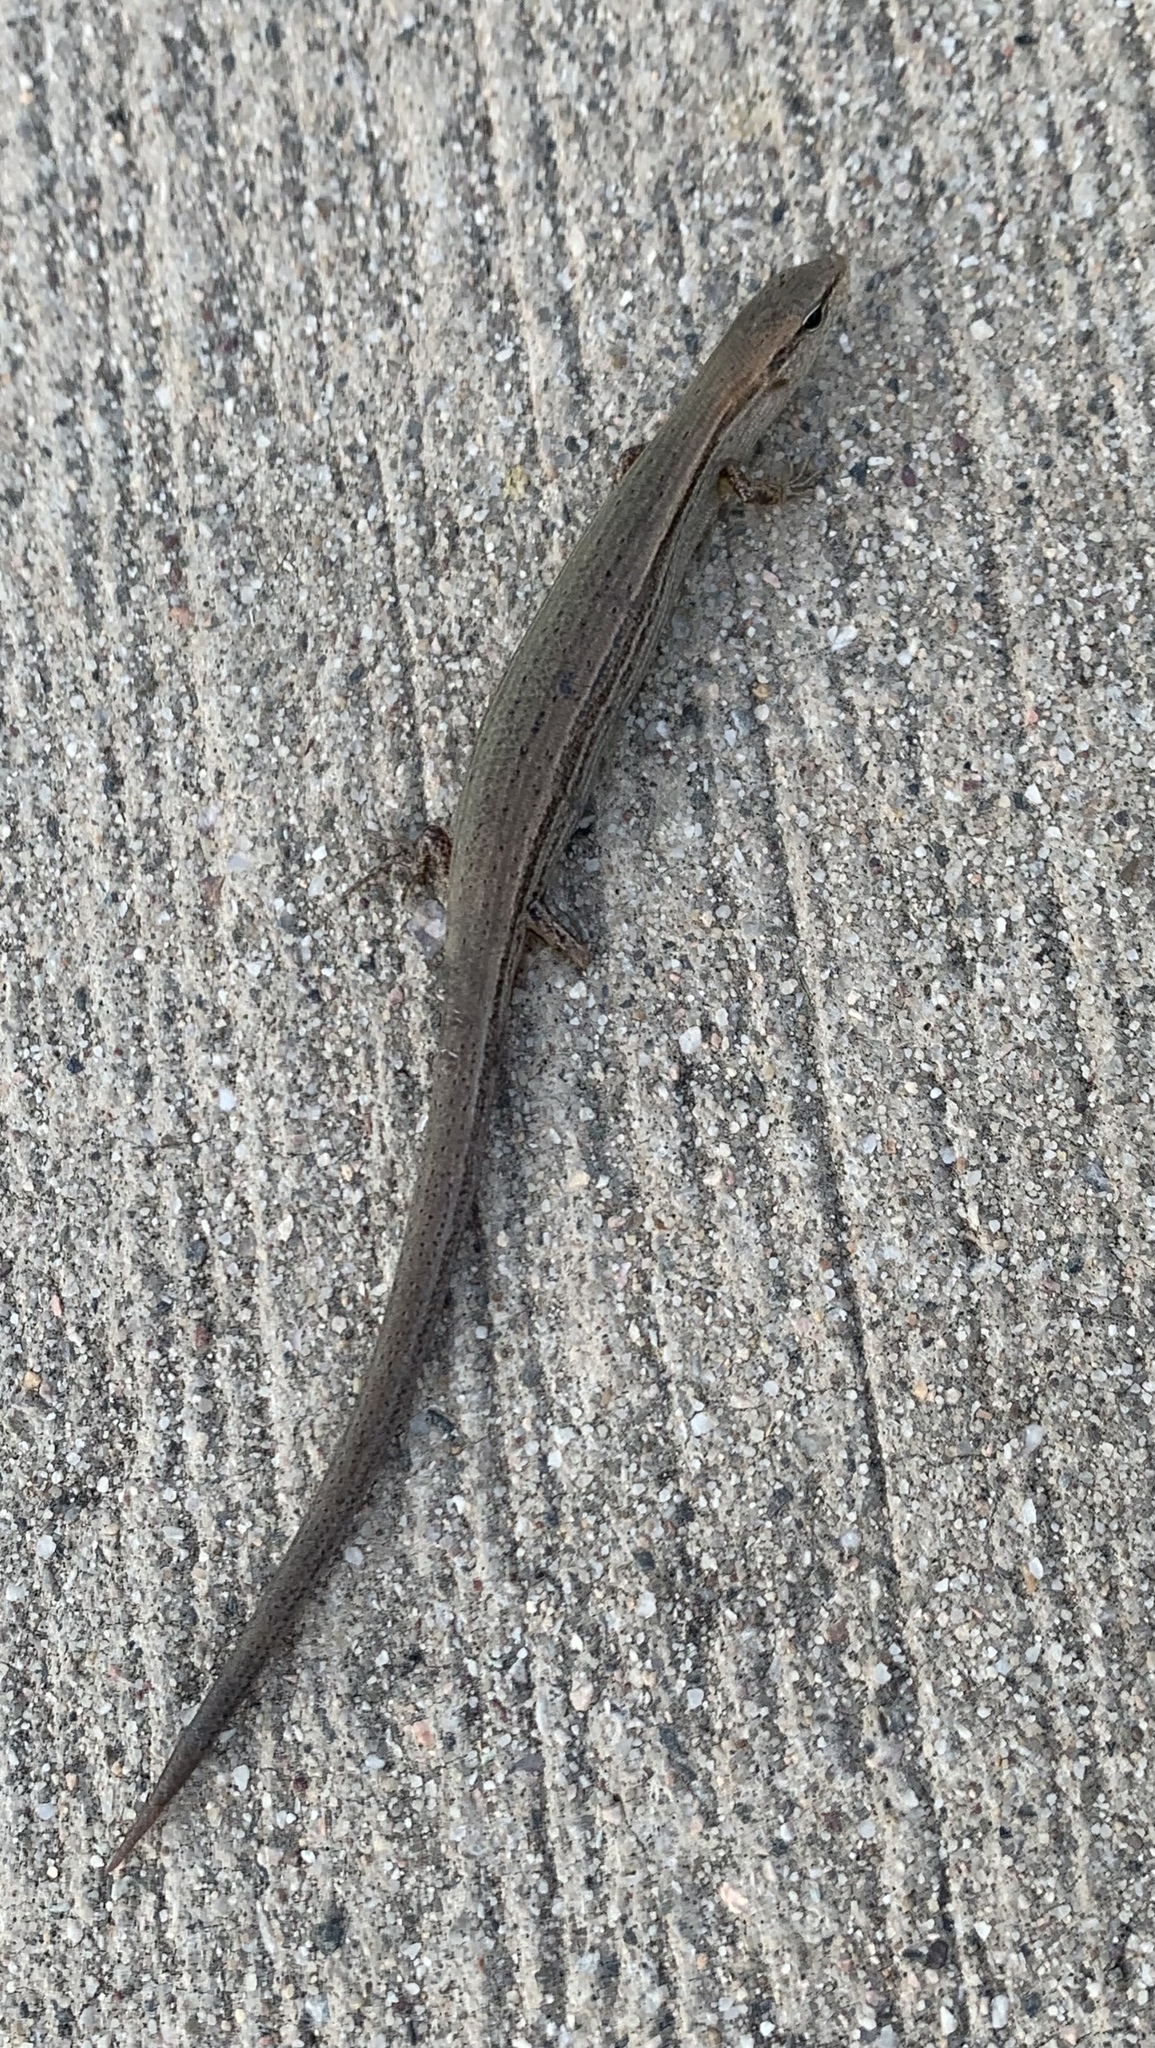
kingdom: Animalia
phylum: Chordata
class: Squamata
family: Scincidae
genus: Scincella
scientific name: Scincella lateralis
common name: Ground skink
